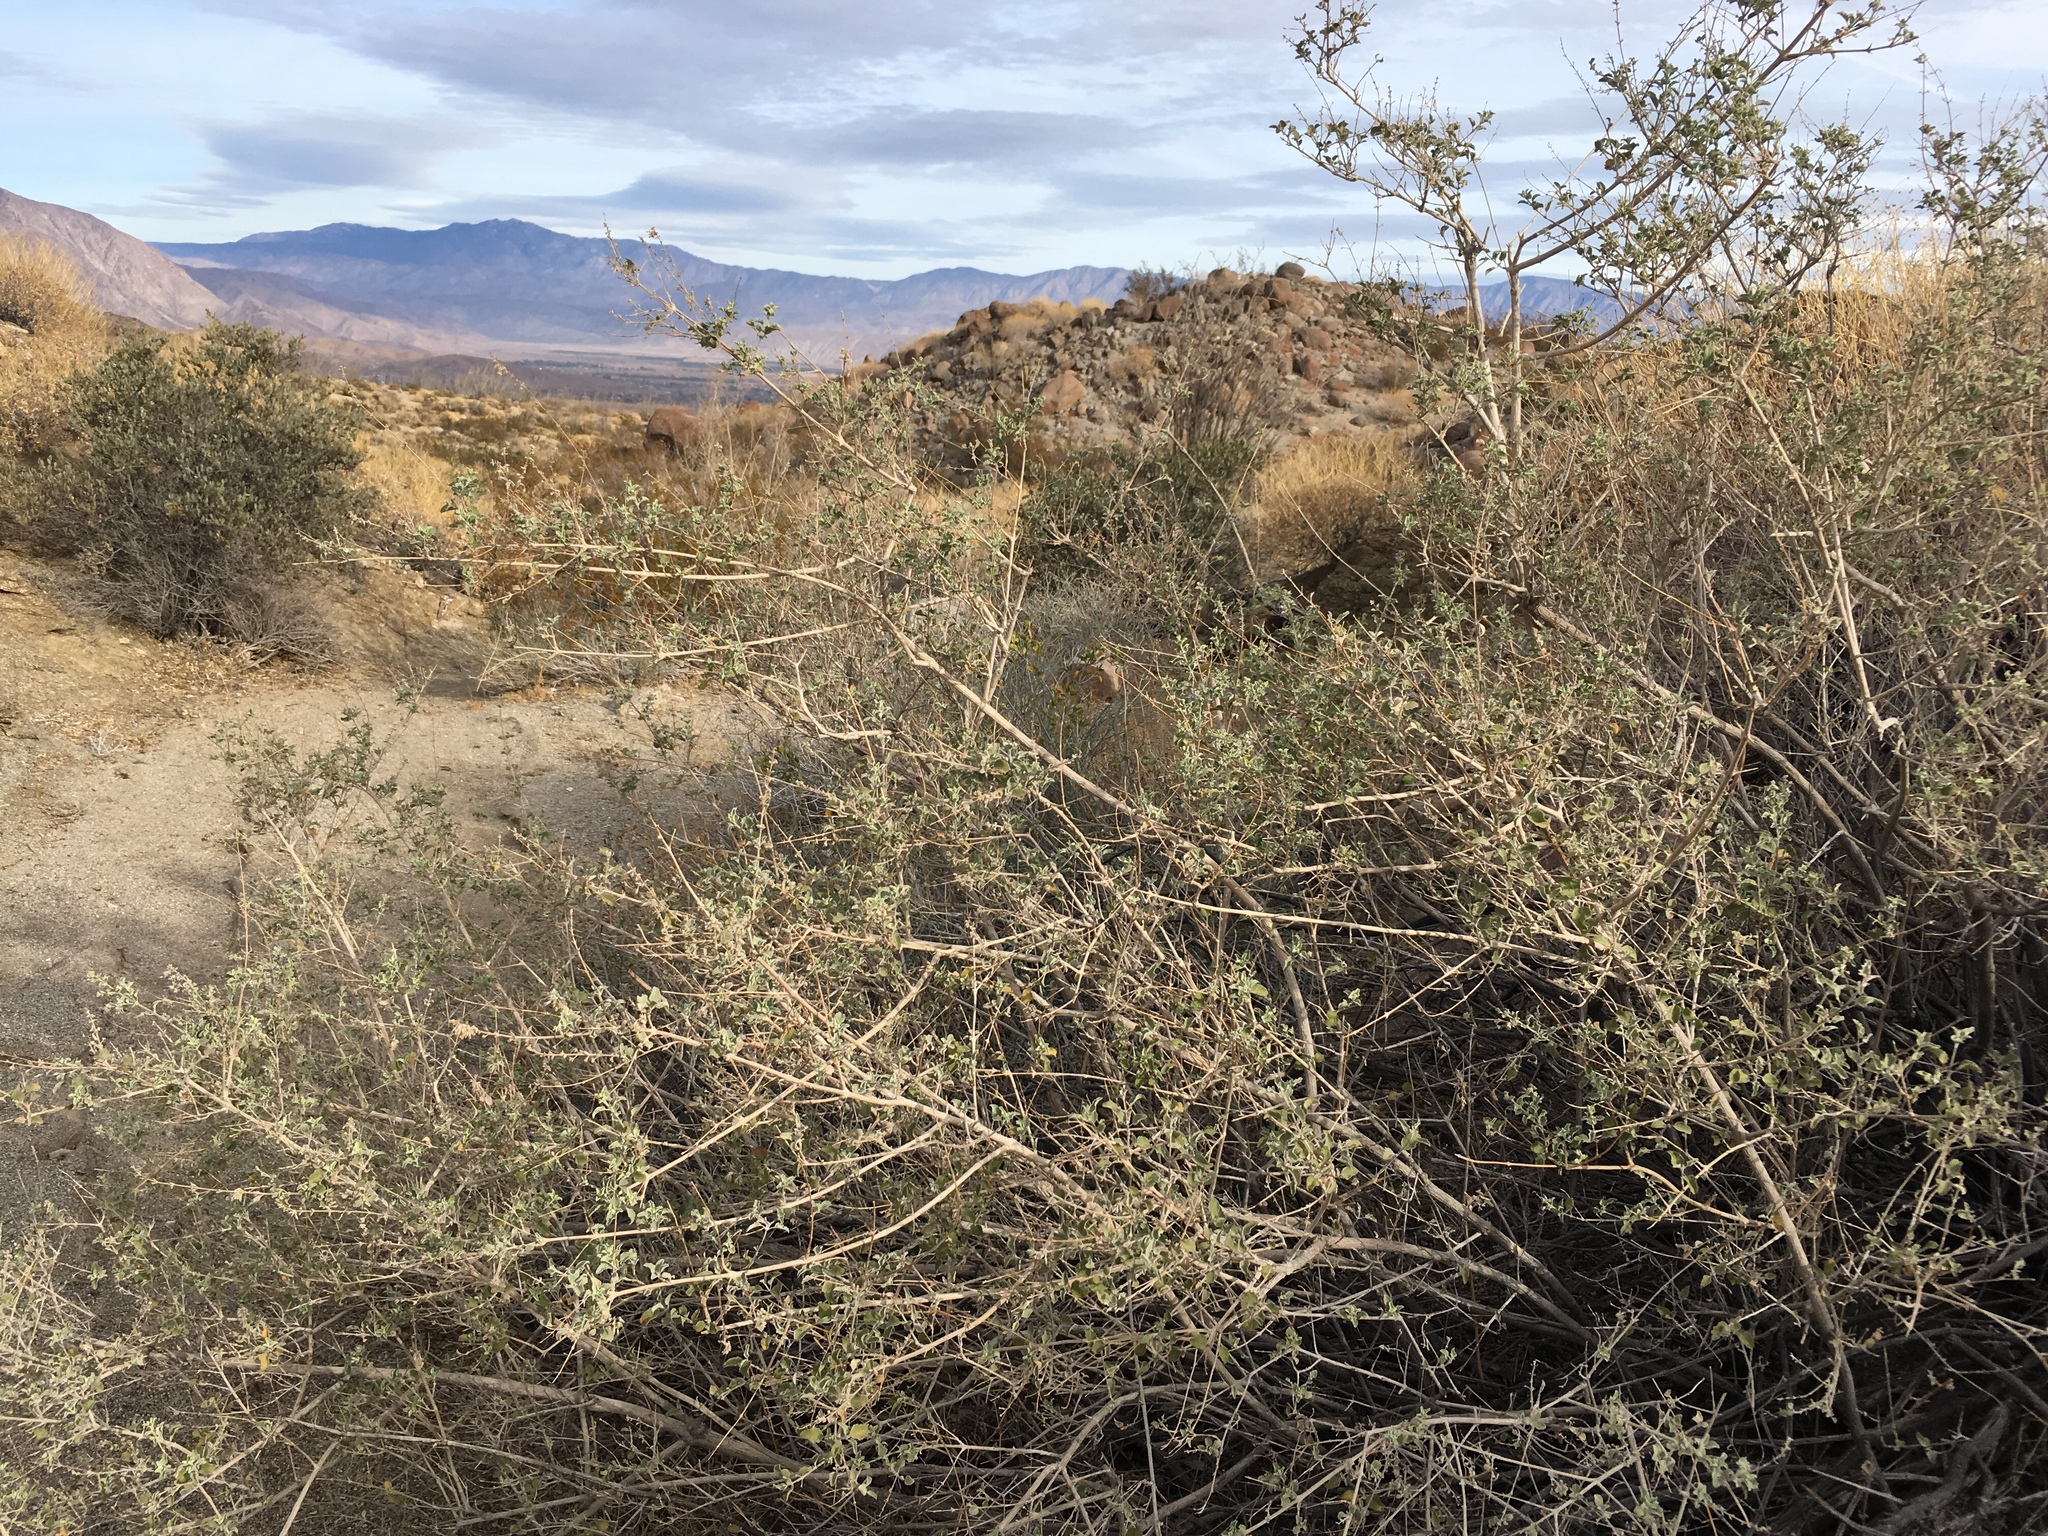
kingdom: Plantae
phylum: Tracheophyta
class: Magnoliopsida
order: Lamiales
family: Lamiaceae
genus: Condea
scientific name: Condea emoryi
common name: Chia
